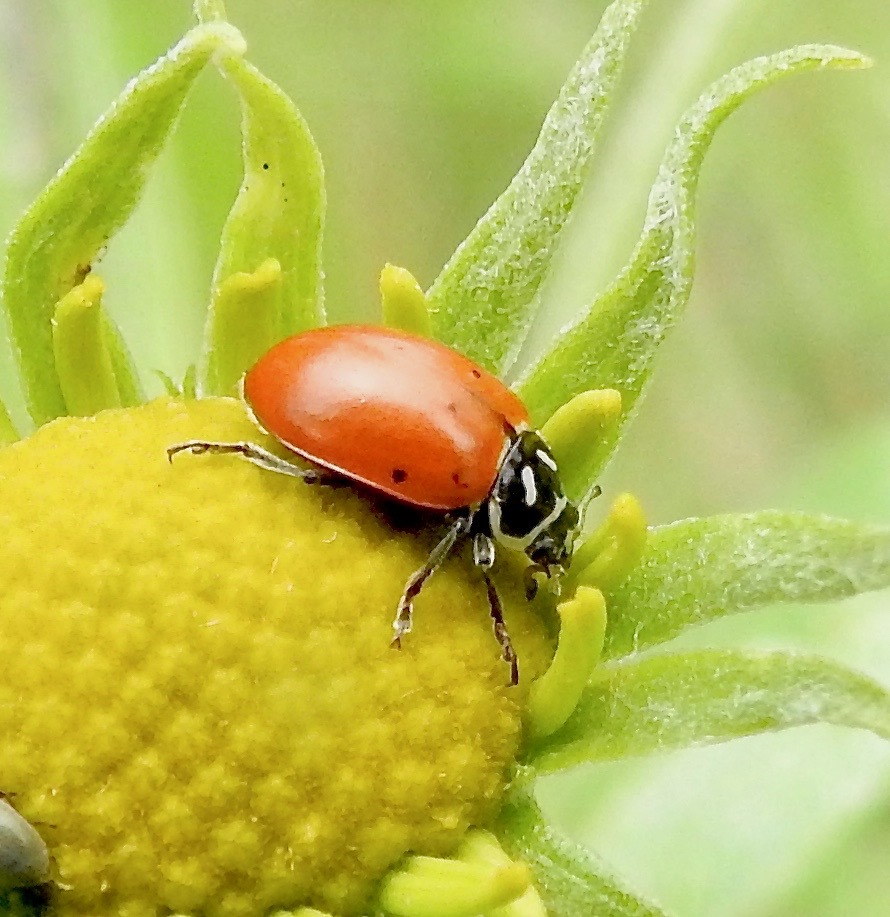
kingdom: Animalia
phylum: Arthropoda
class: Insecta
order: Coleoptera
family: Coccinellidae
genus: Hippodamia
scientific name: Hippodamia convergens
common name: Convergent lady beetle
